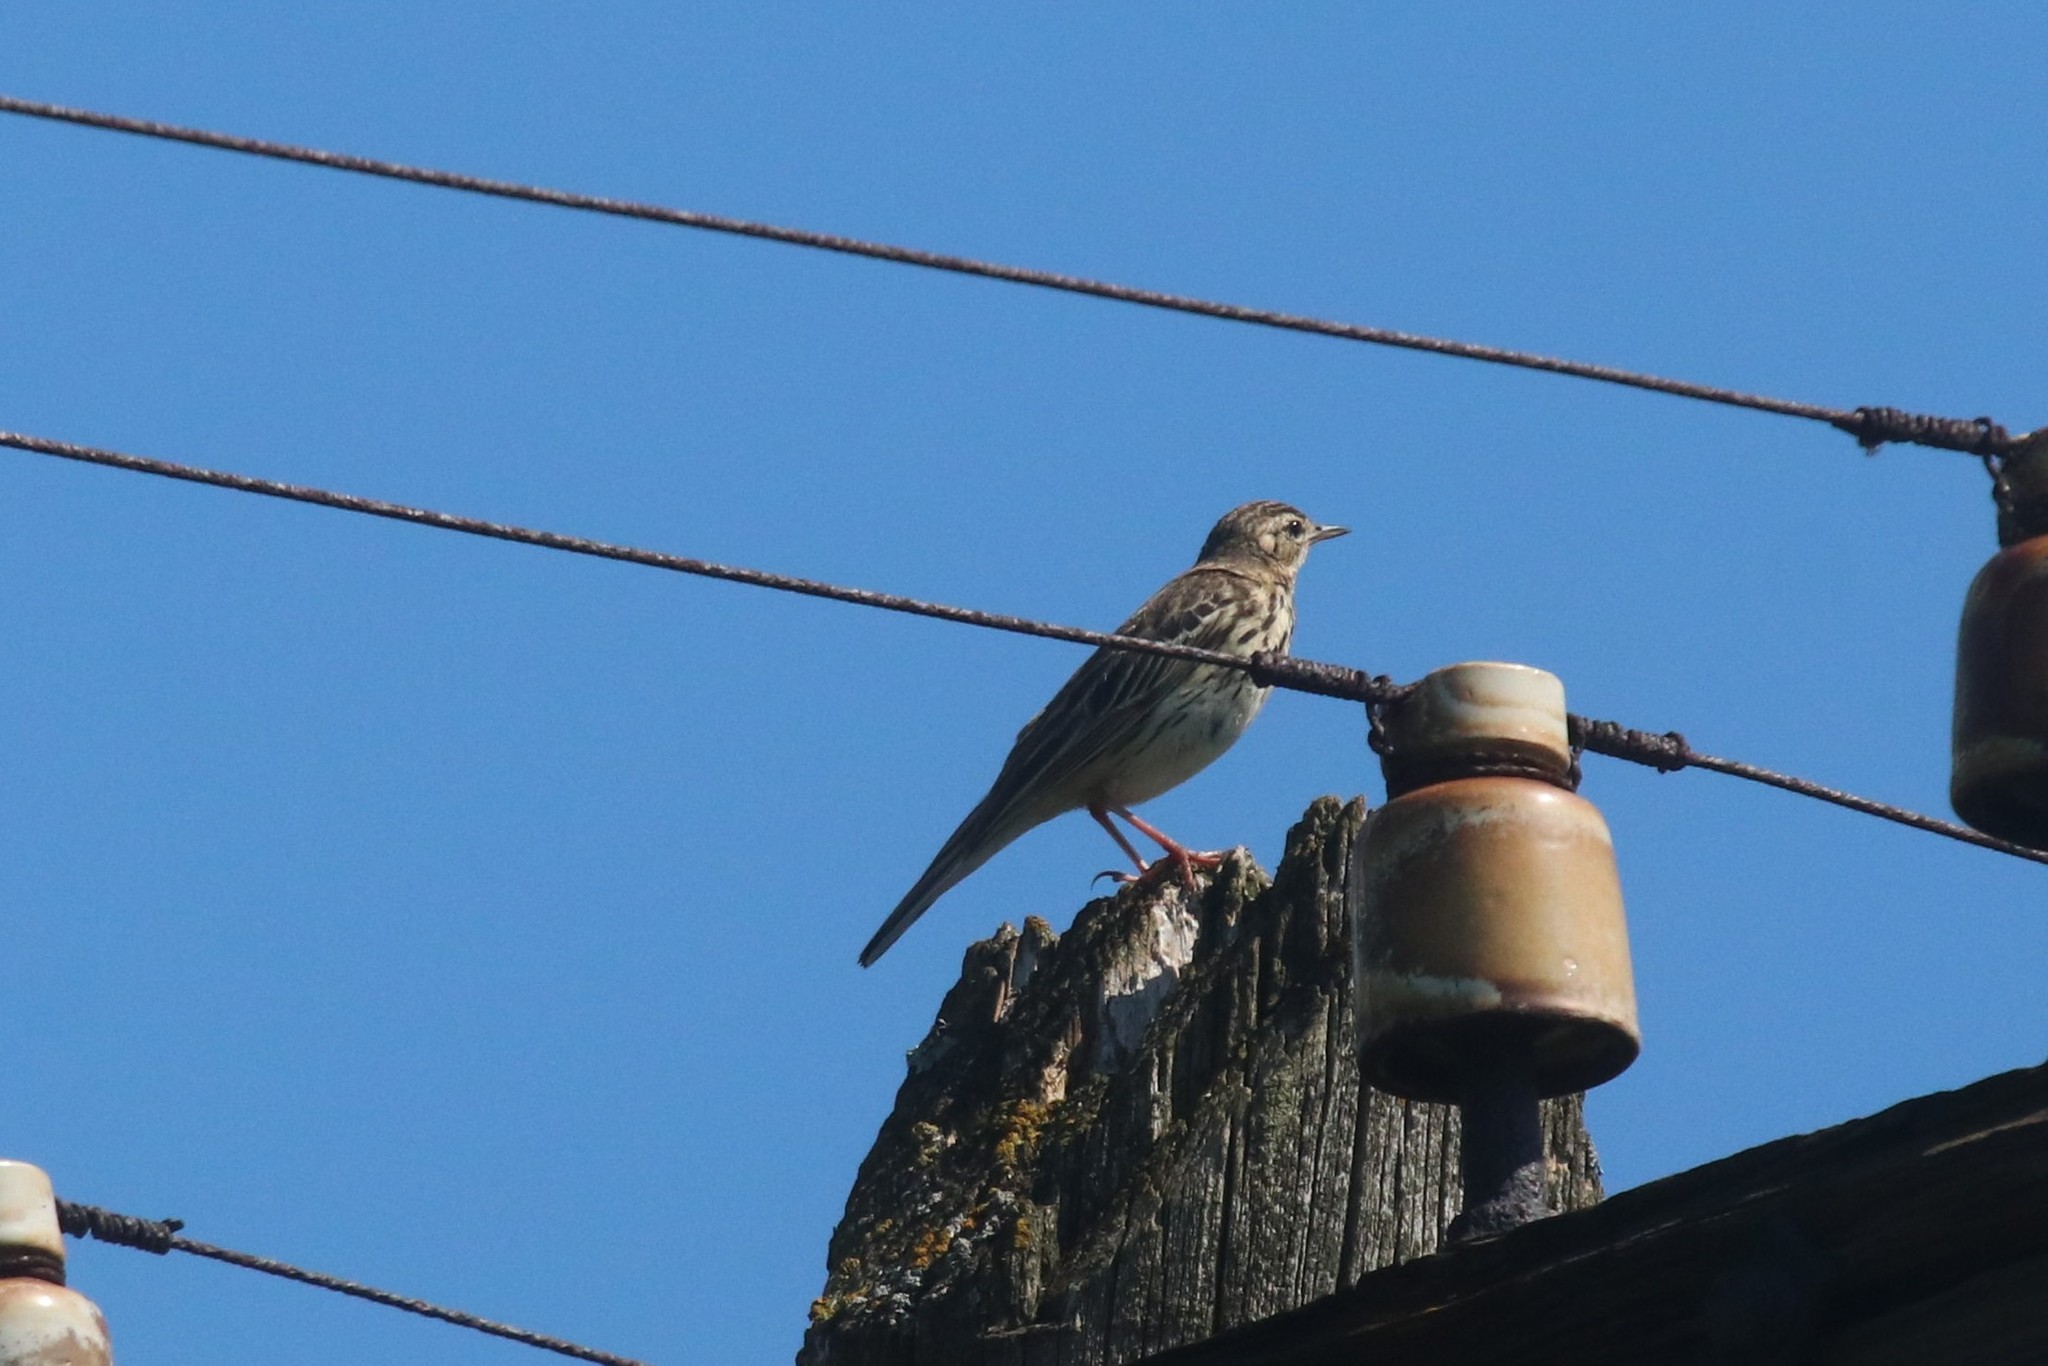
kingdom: Animalia
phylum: Chordata
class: Aves
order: Passeriformes
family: Motacillidae
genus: Anthus
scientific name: Anthus trivialis
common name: Tree pipit
